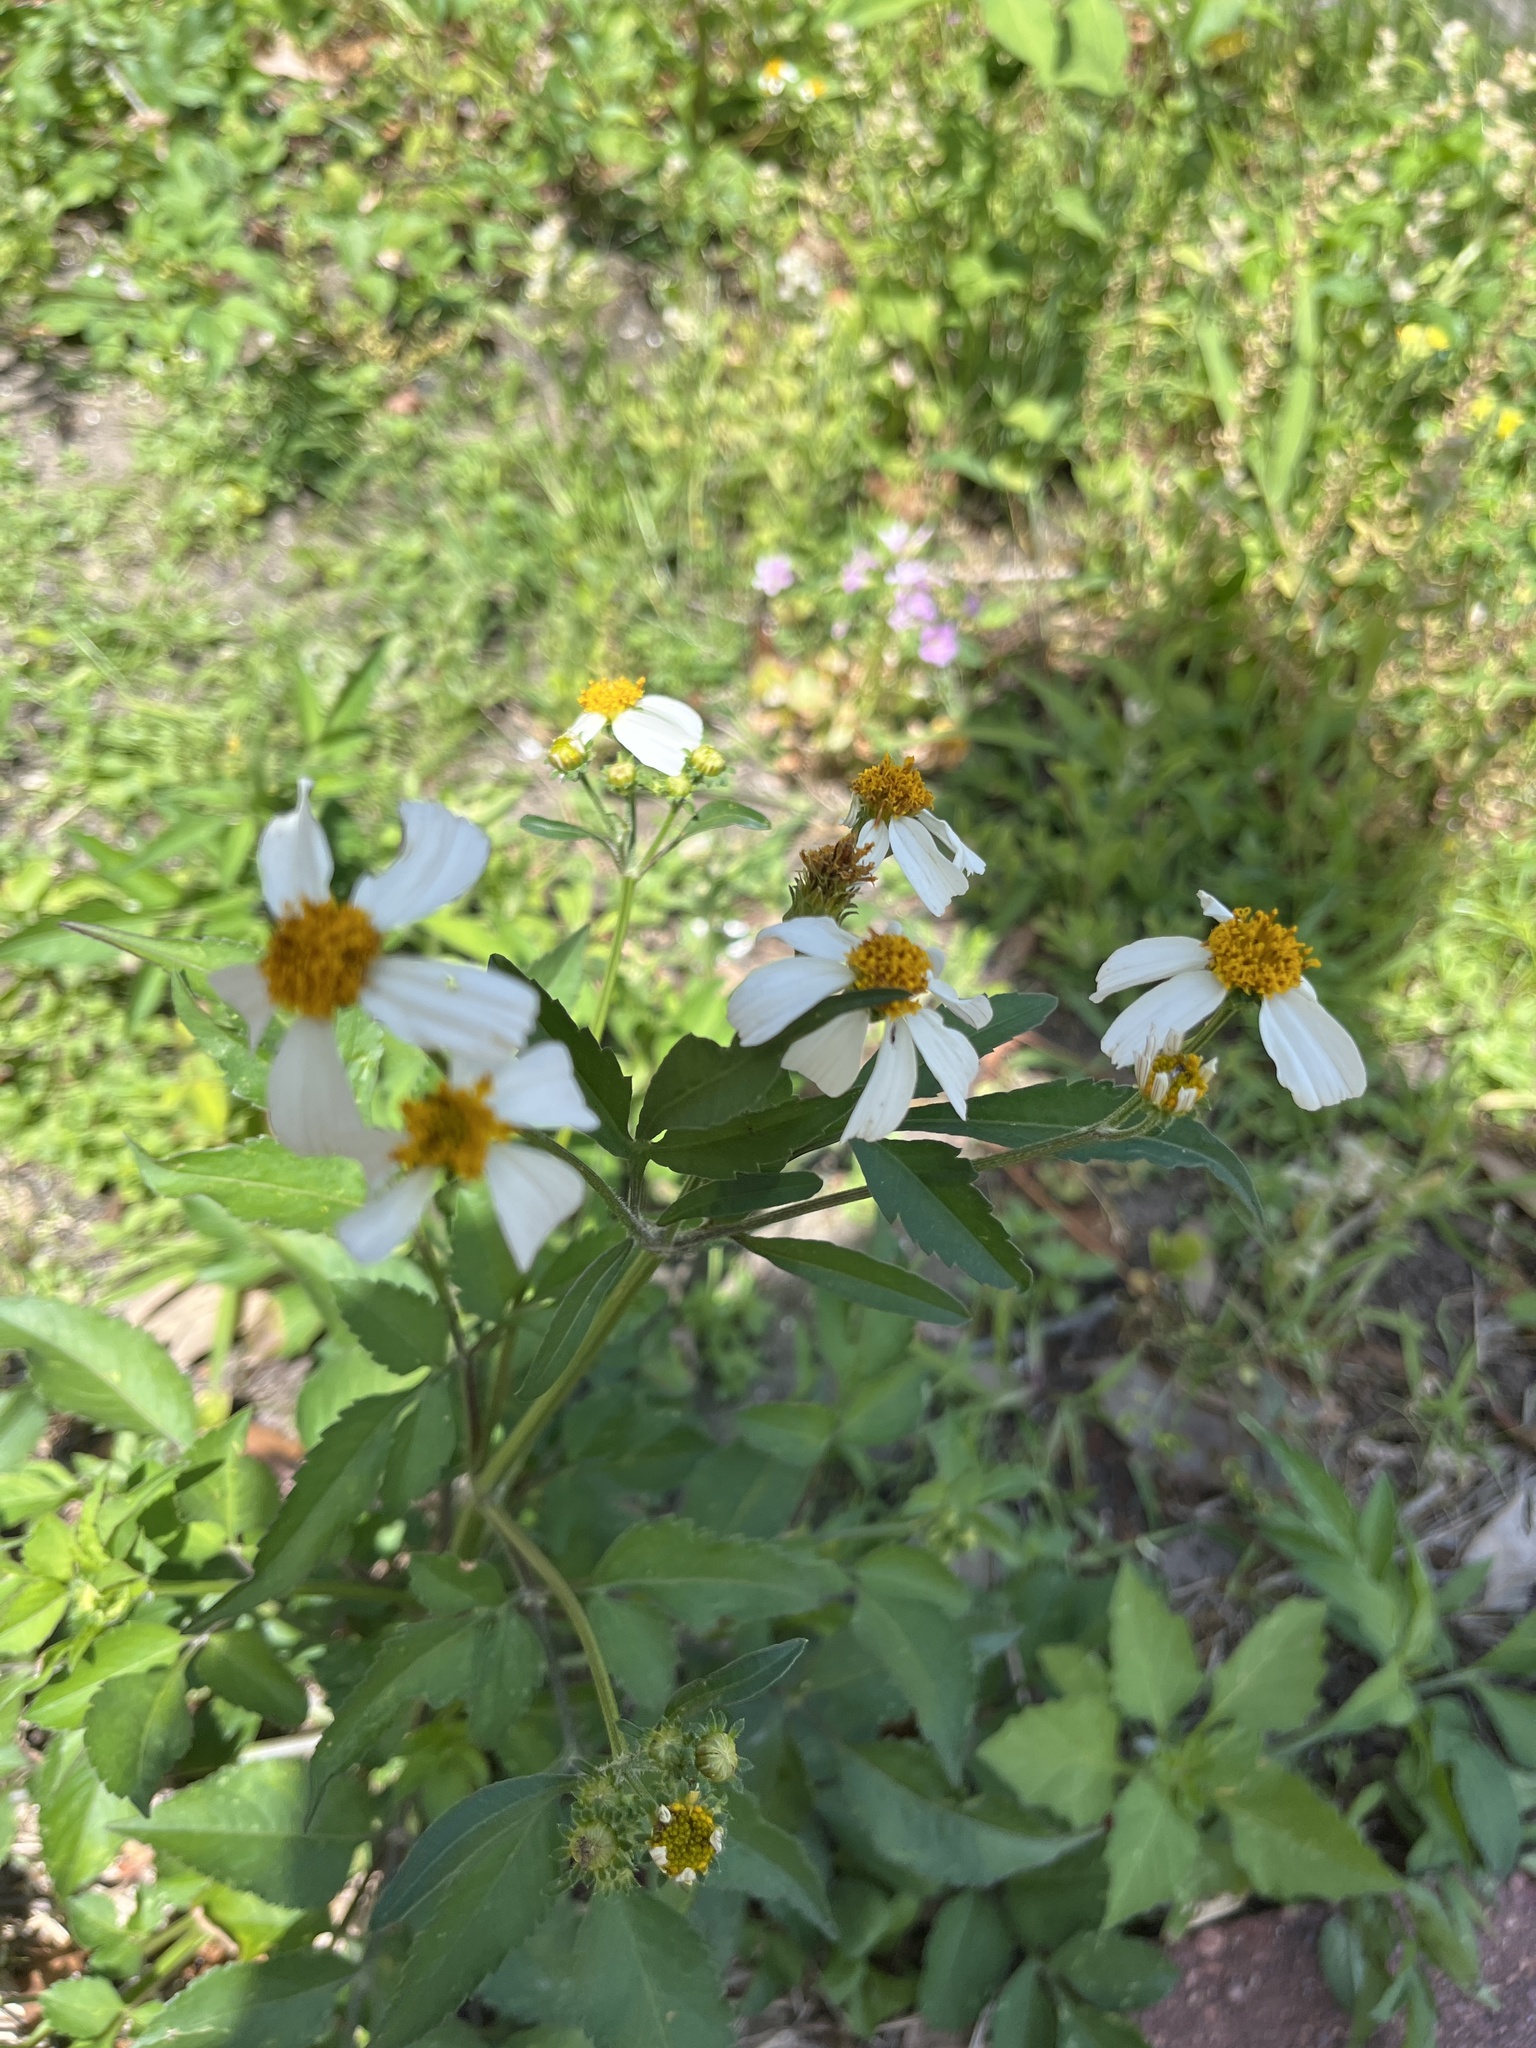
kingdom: Plantae
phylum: Tracheophyta
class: Magnoliopsida
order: Asterales
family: Asteraceae
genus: Bidens
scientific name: Bidens alba
